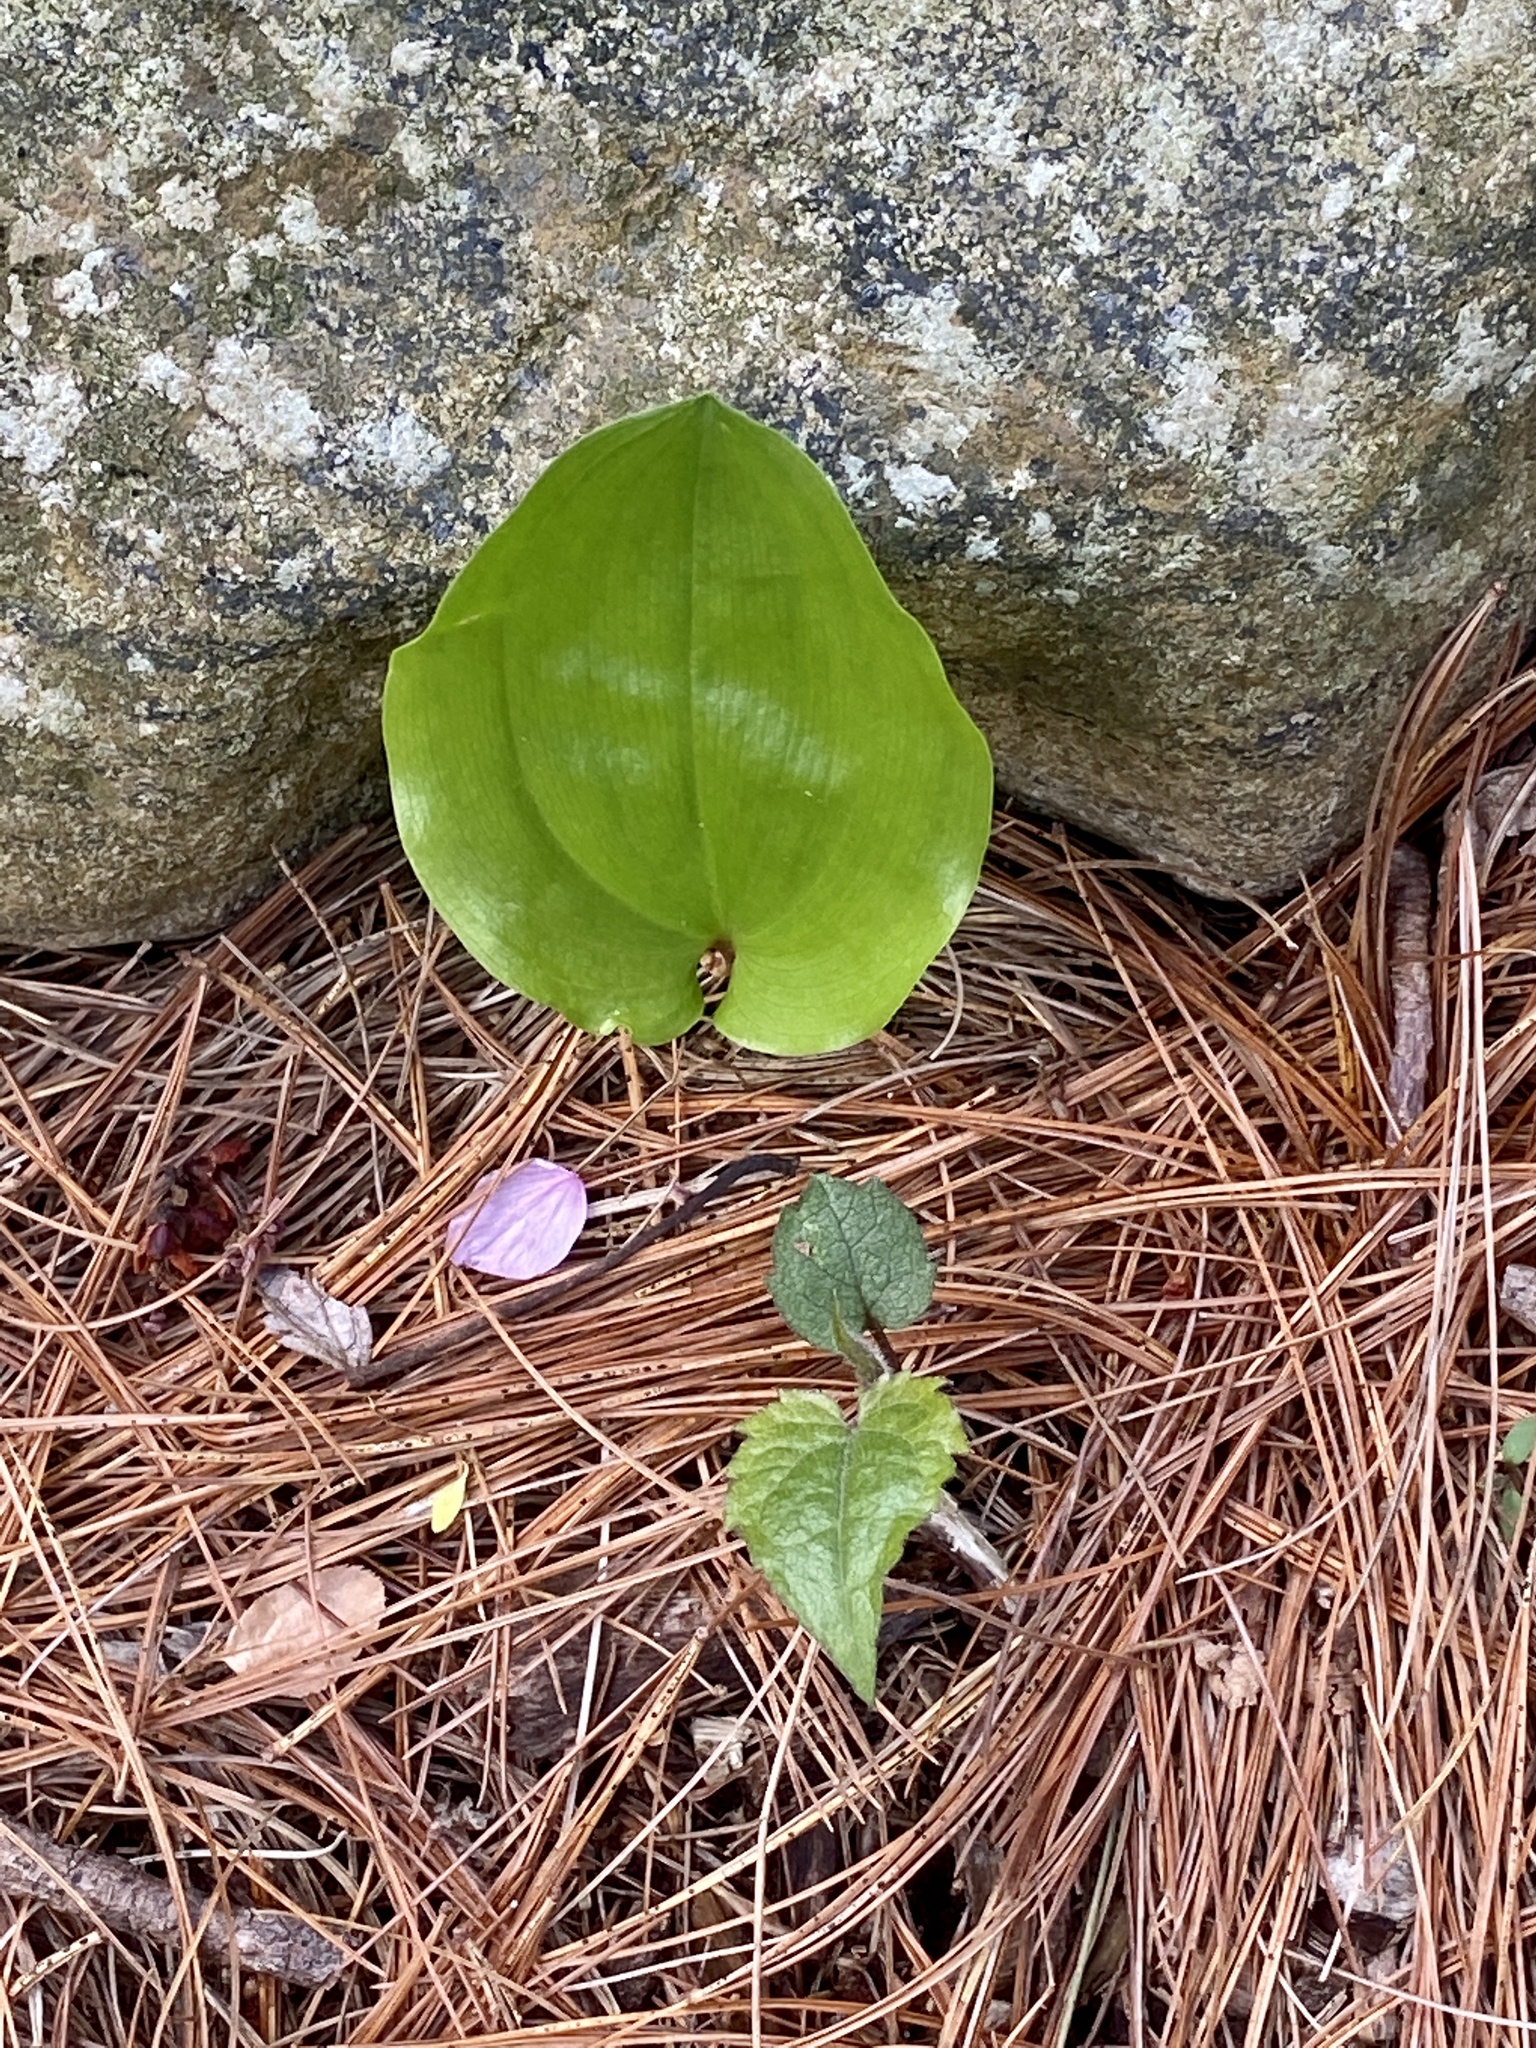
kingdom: Plantae
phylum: Tracheophyta
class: Liliopsida
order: Asparagales
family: Asparagaceae
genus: Maianthemum
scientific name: Maianthemum canadense
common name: False lily-of-the-valley
